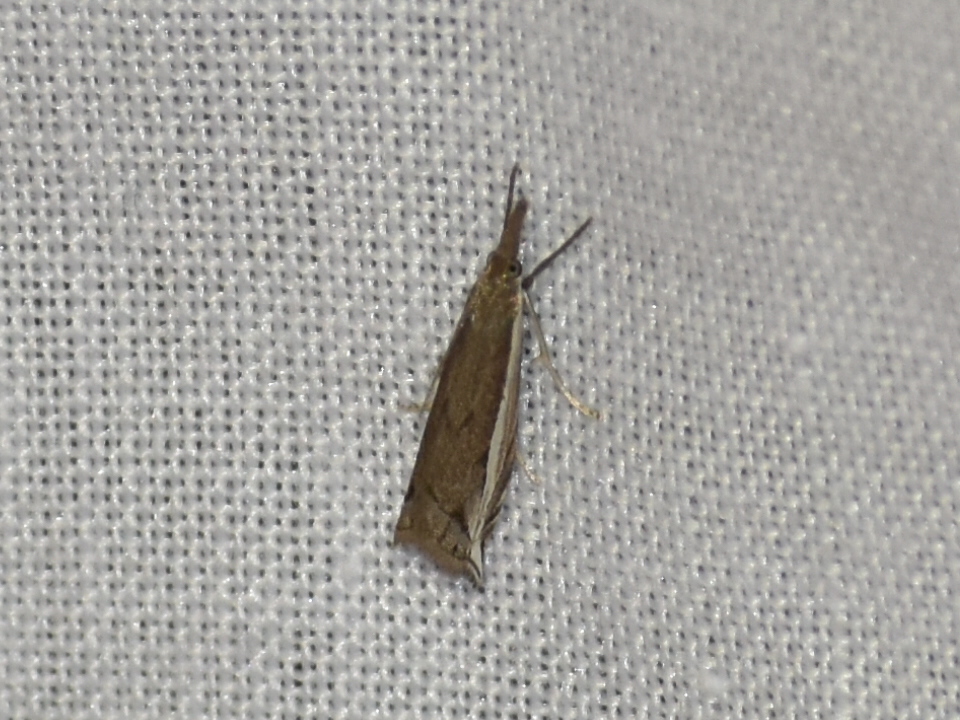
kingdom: Animalia
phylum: Arthropoda
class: Insecta
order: Lepidoptera
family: Crambidae
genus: Raphiptera
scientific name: Raphiptera argillaceellus
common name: Diminutive grass-veneer
